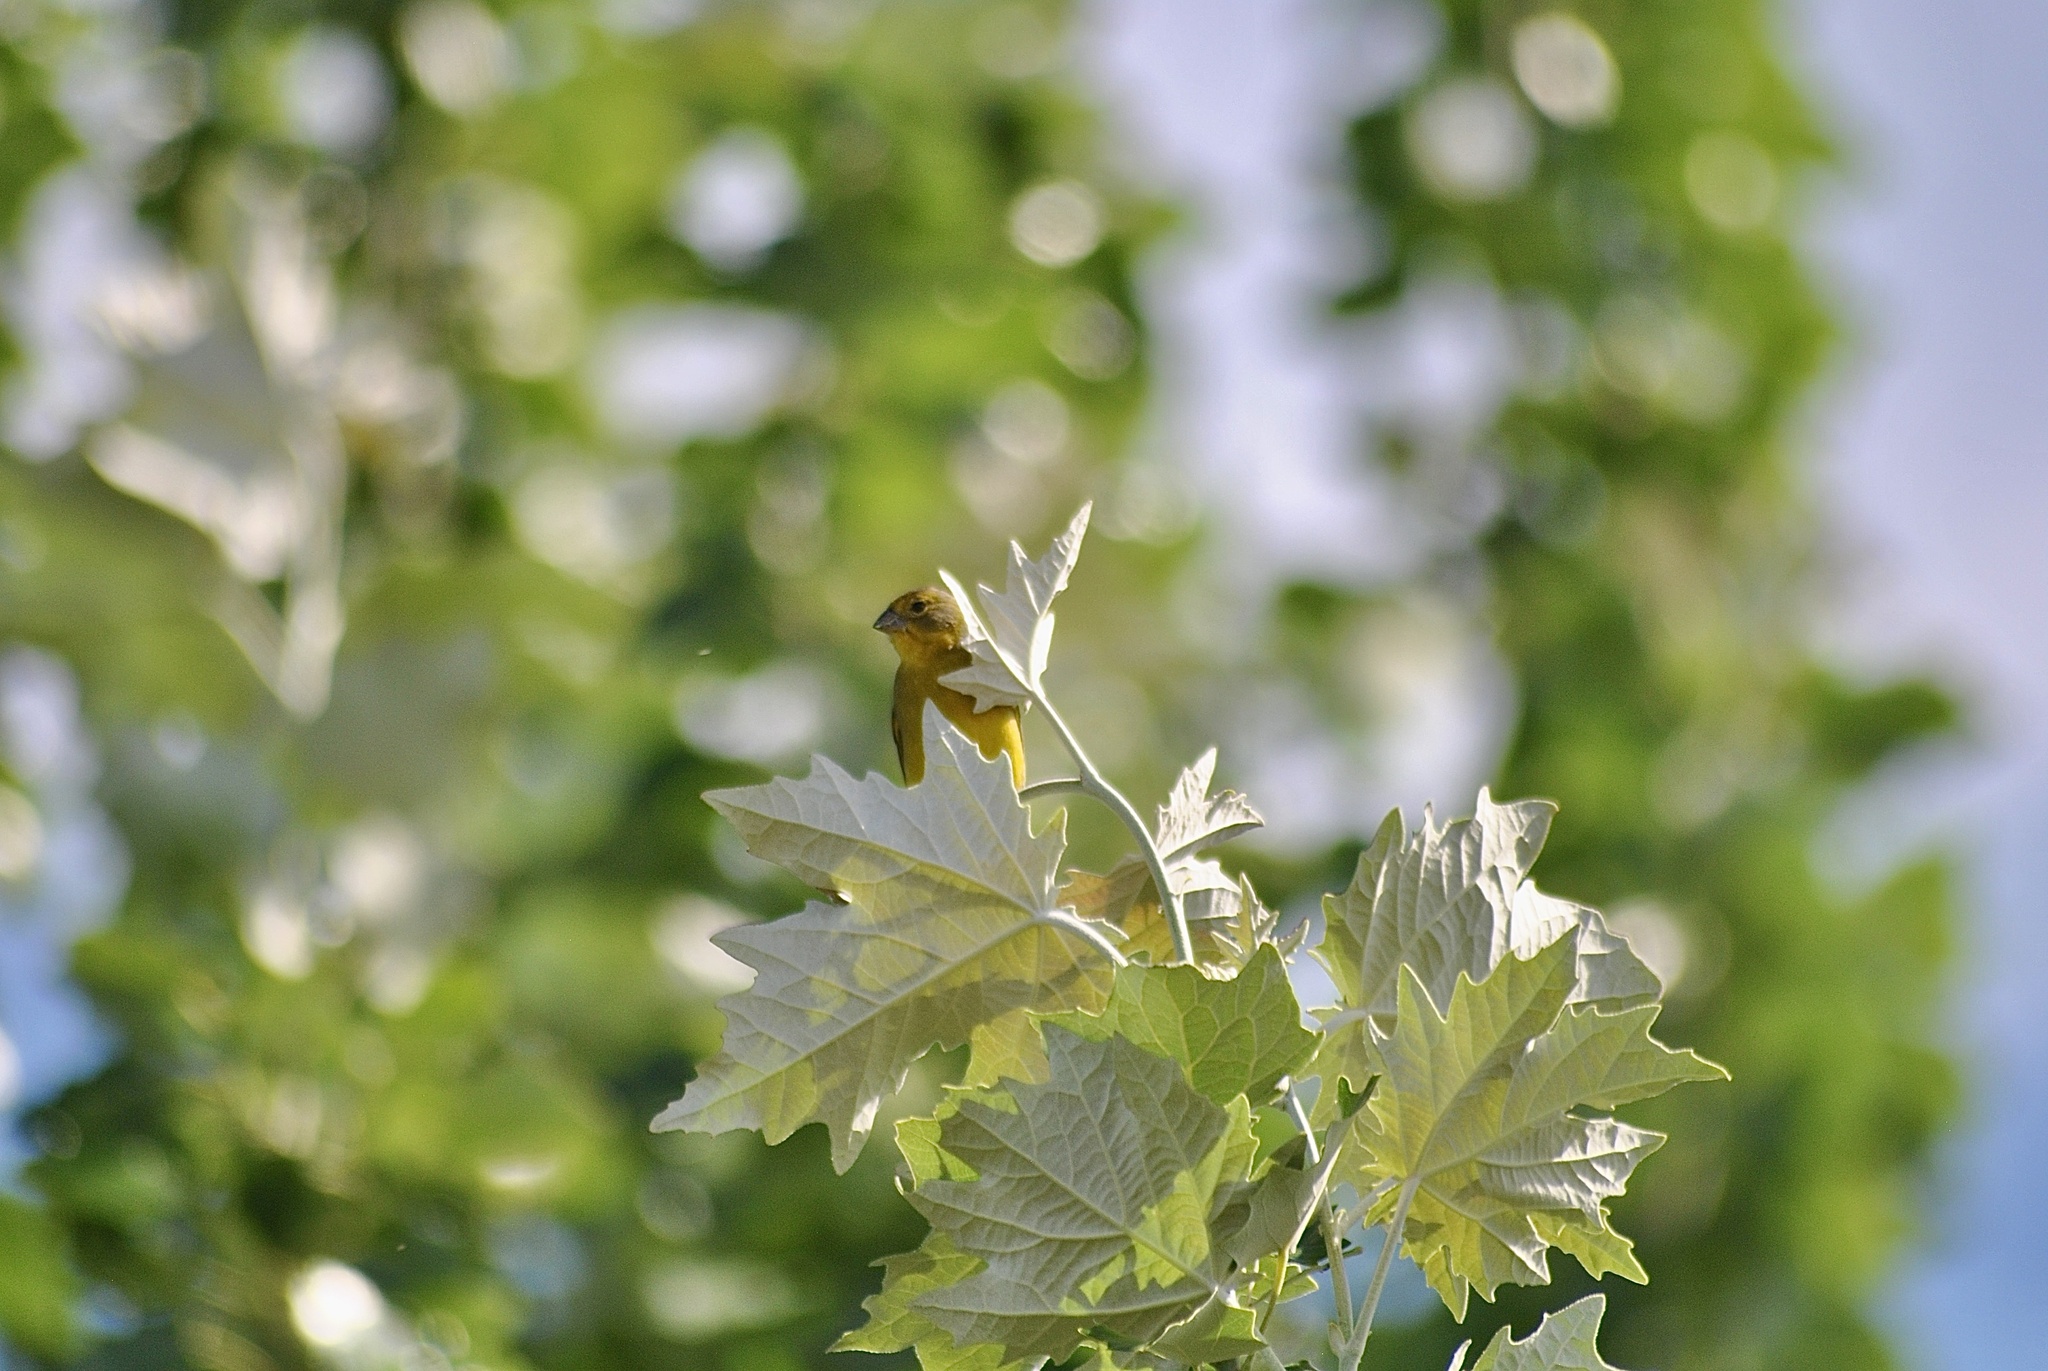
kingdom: Animalia
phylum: Chordata
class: Aves
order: Passeriformes
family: Thraupidae
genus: Sicalis
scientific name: Sicalis luteola
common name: Grassland yellow-finch
